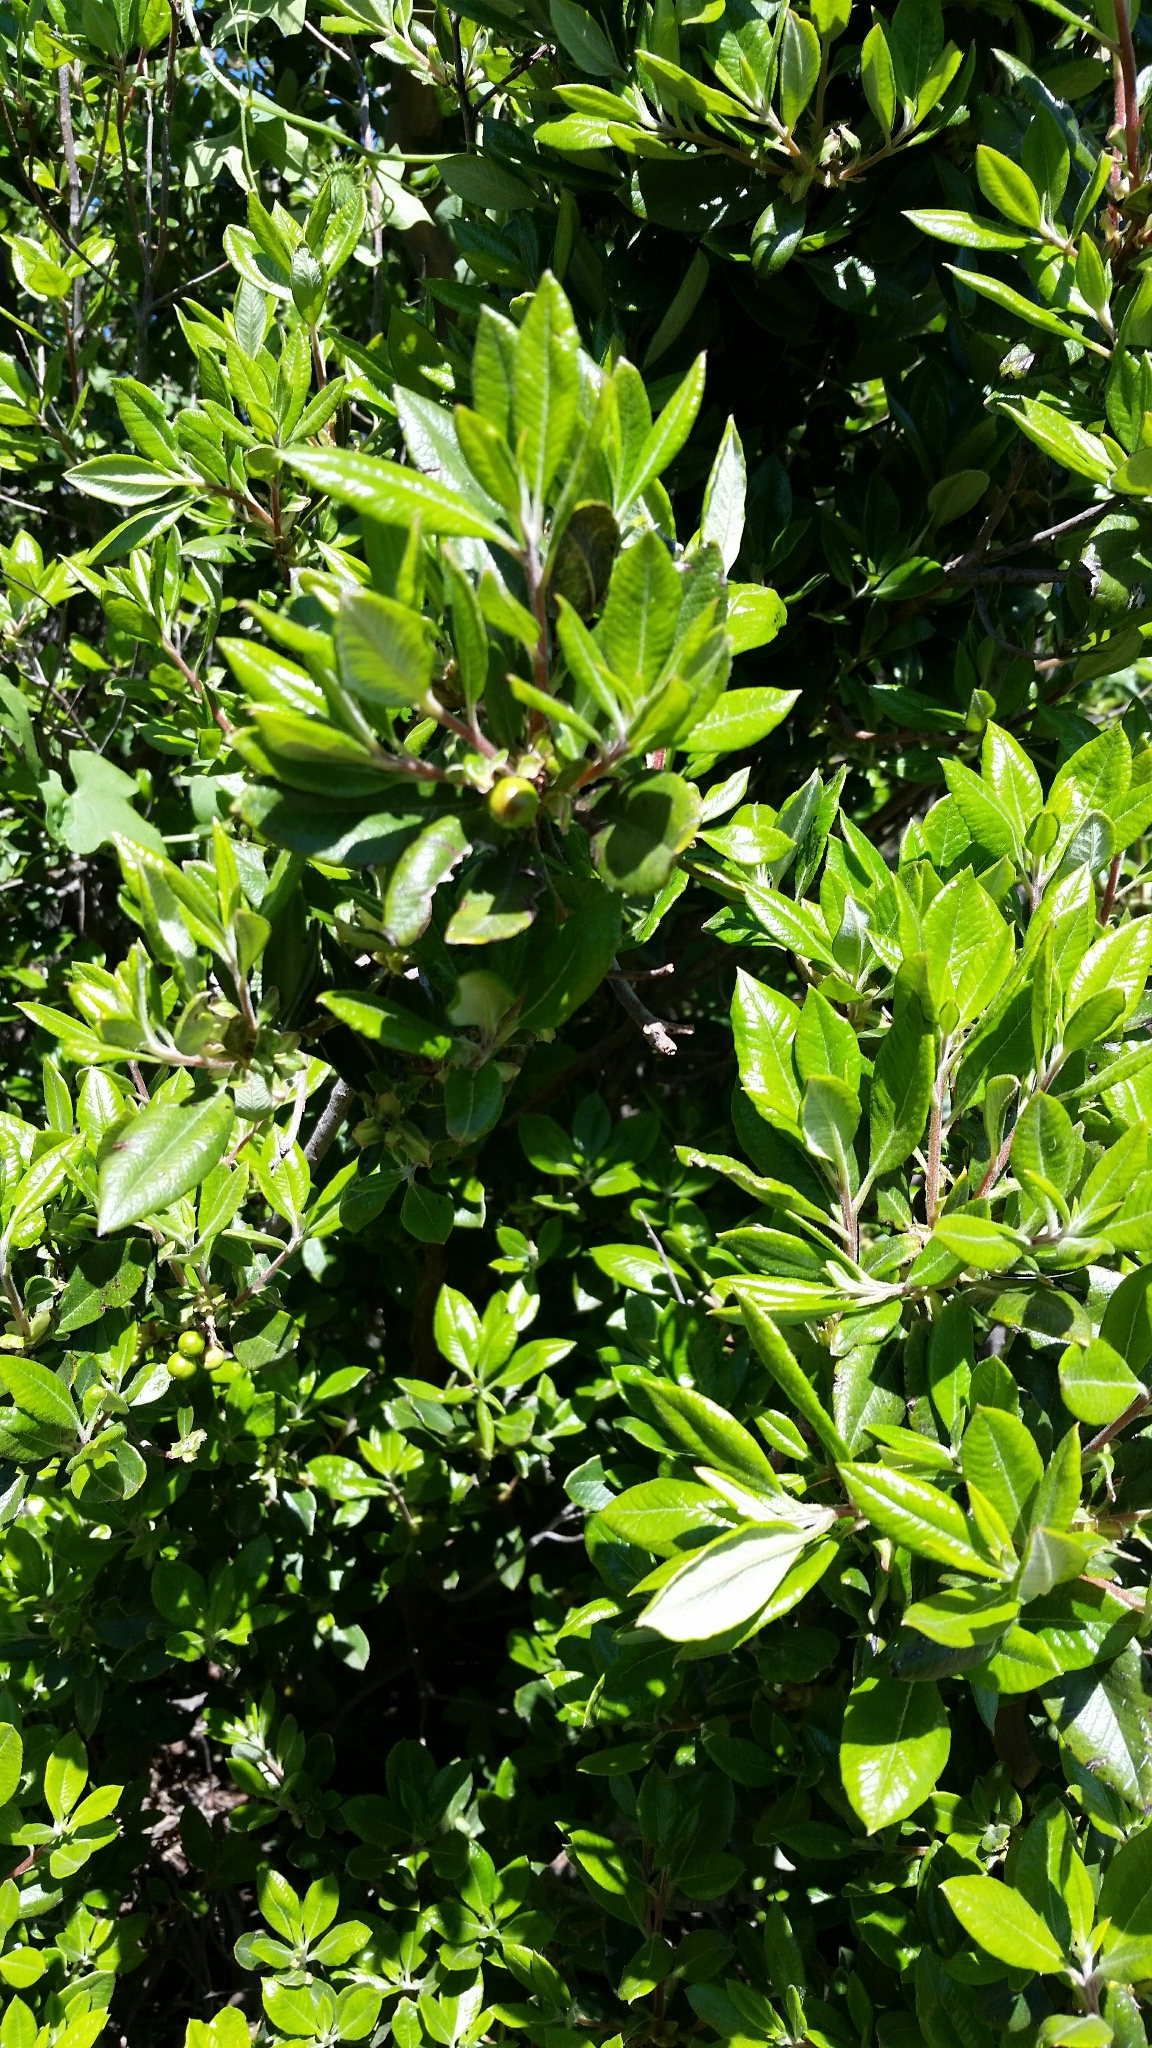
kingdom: Plantae
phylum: Tracheophyta
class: Magnoliopsida
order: Ericales
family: Ericaceae
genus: Arctostaphylos
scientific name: Arctostaphylos bicolor
